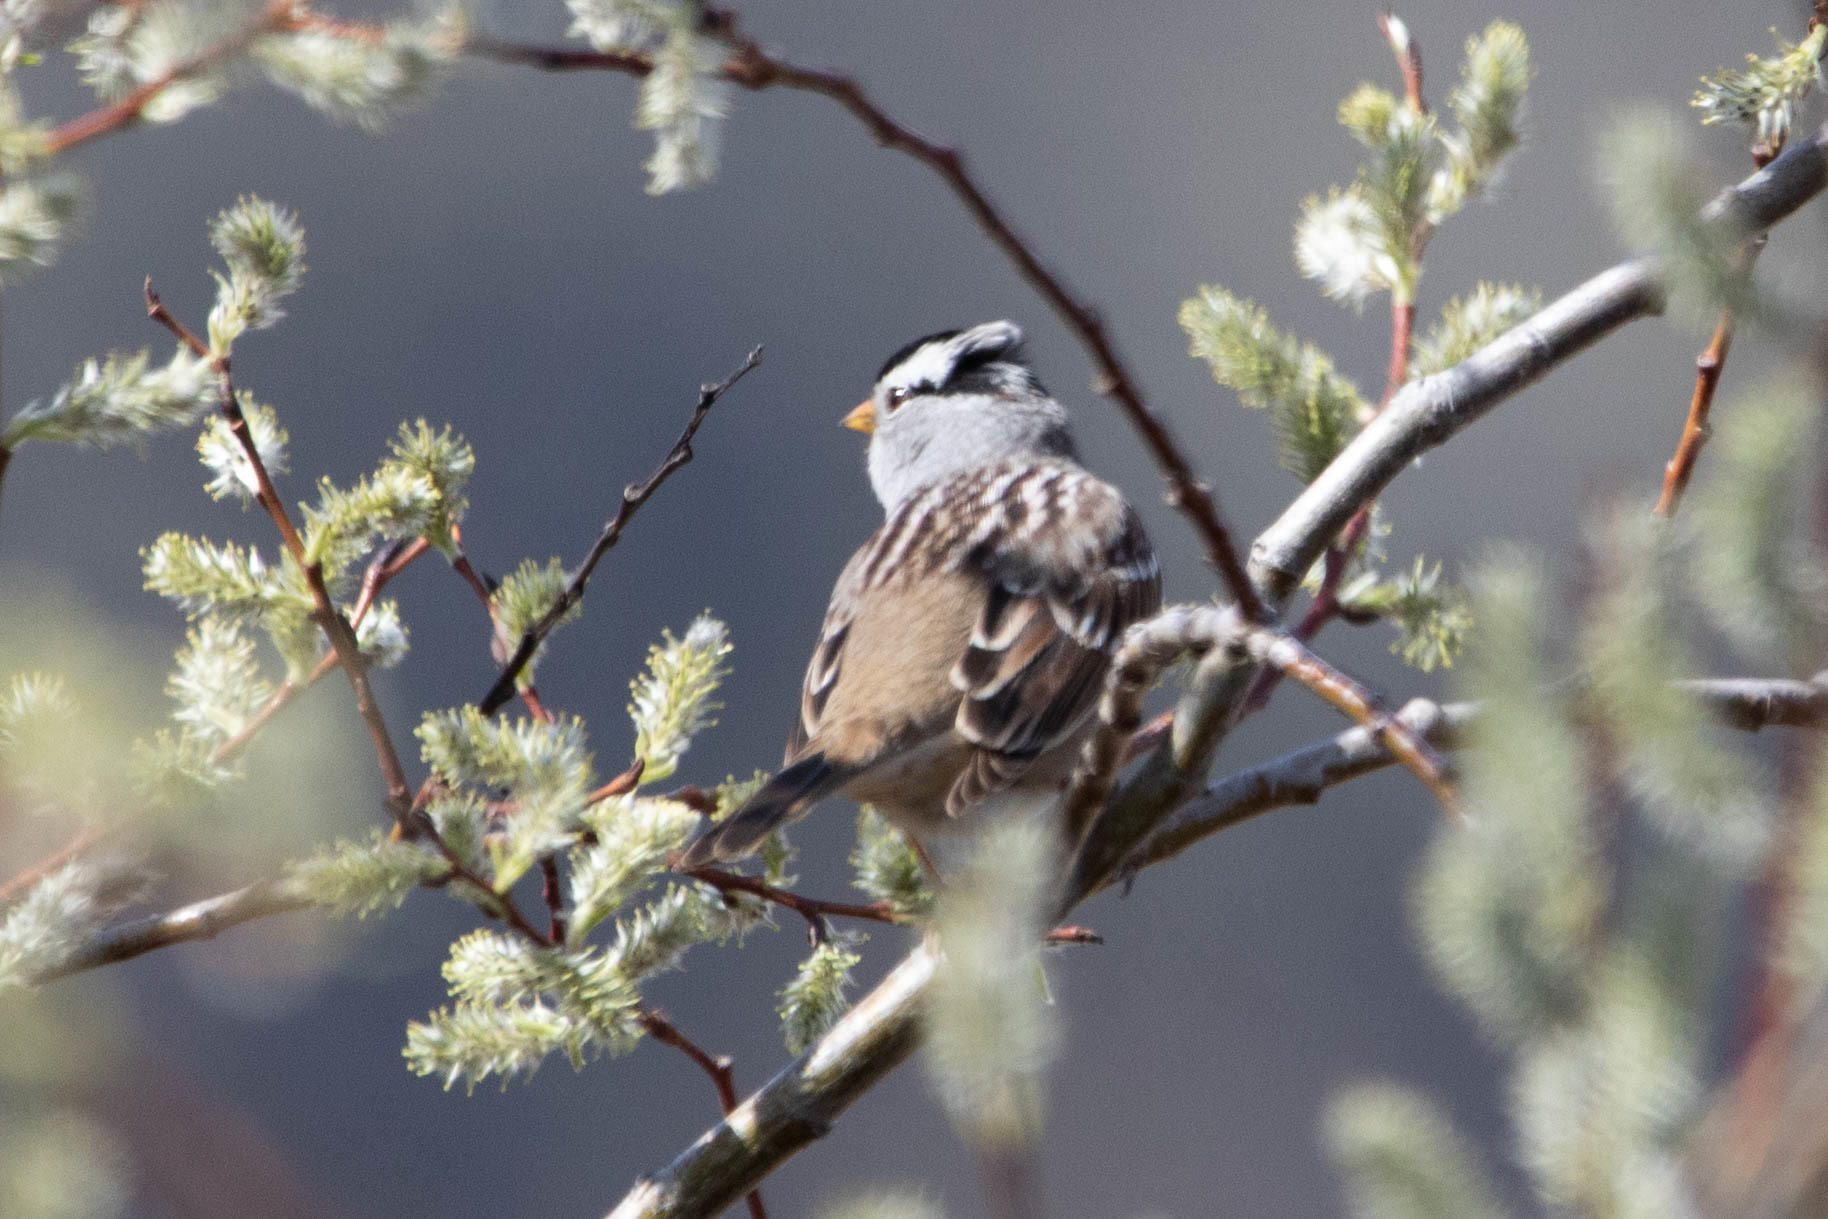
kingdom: Animalia
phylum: Chordata
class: Aves
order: Passeriformes
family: Passerellidae
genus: Zonotrichia
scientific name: Zonotrichia leucophrys
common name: White-crowned sparrow
